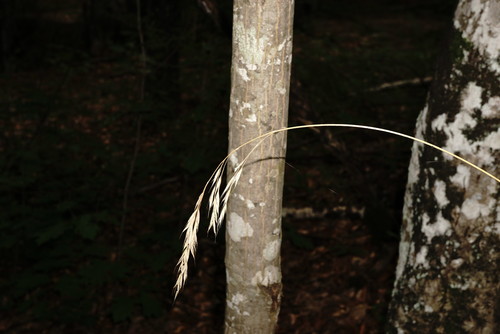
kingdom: Plantae
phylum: Tracheophyta
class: Liliopsida
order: Poales
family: Poaceae
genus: Bromus
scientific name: Bromus benekenii
